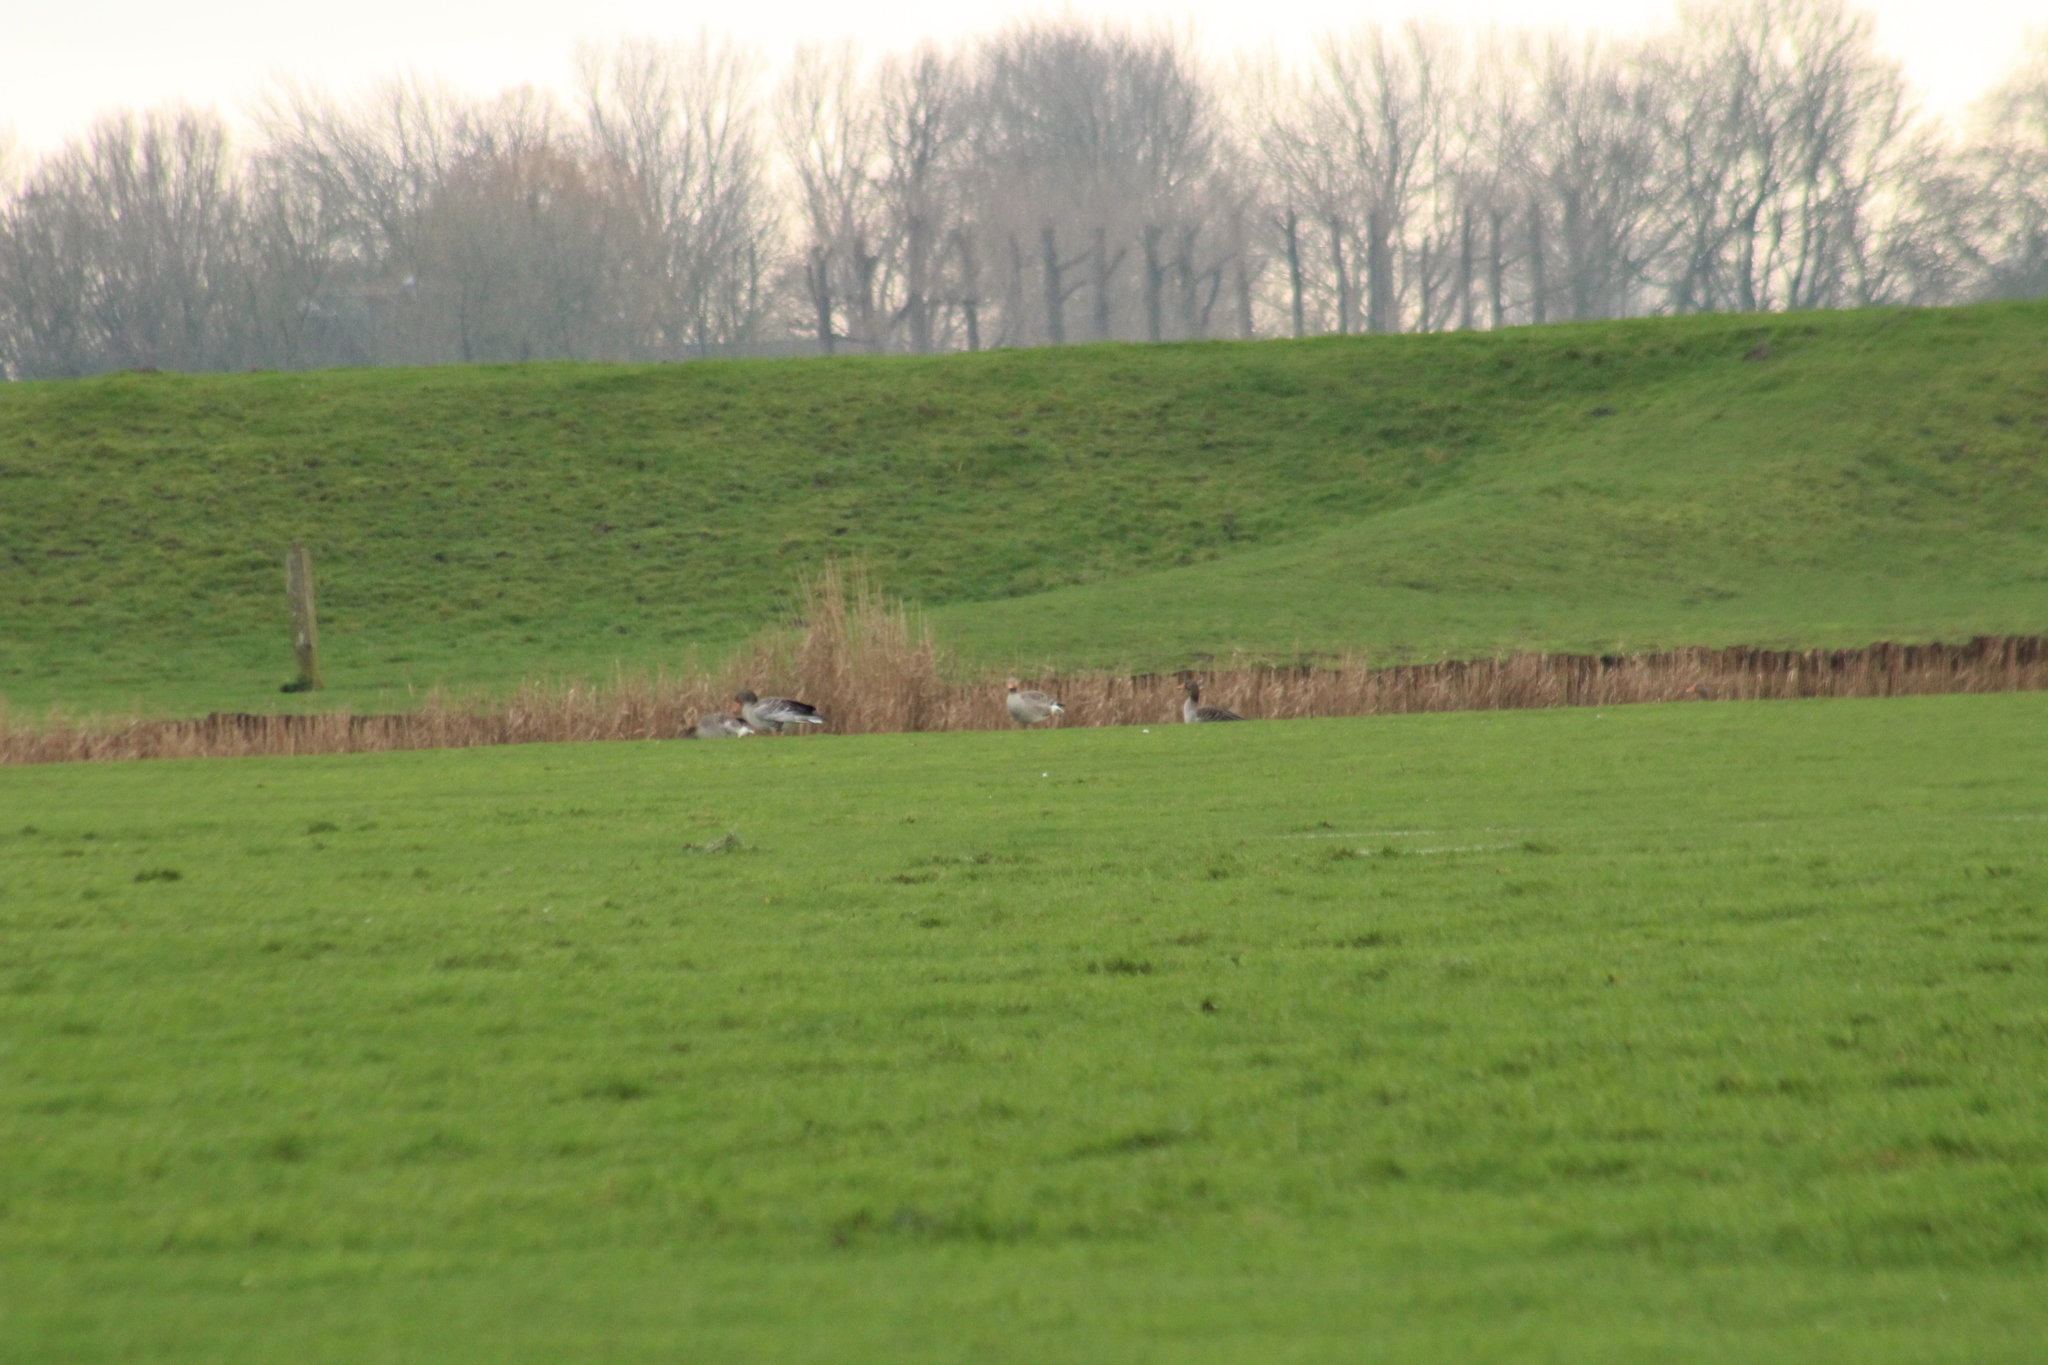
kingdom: Animalia
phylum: Chordata
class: Aves
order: Anseriformes
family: Anatidae
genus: Anser
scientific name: Anser anser
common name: Greylag goose
